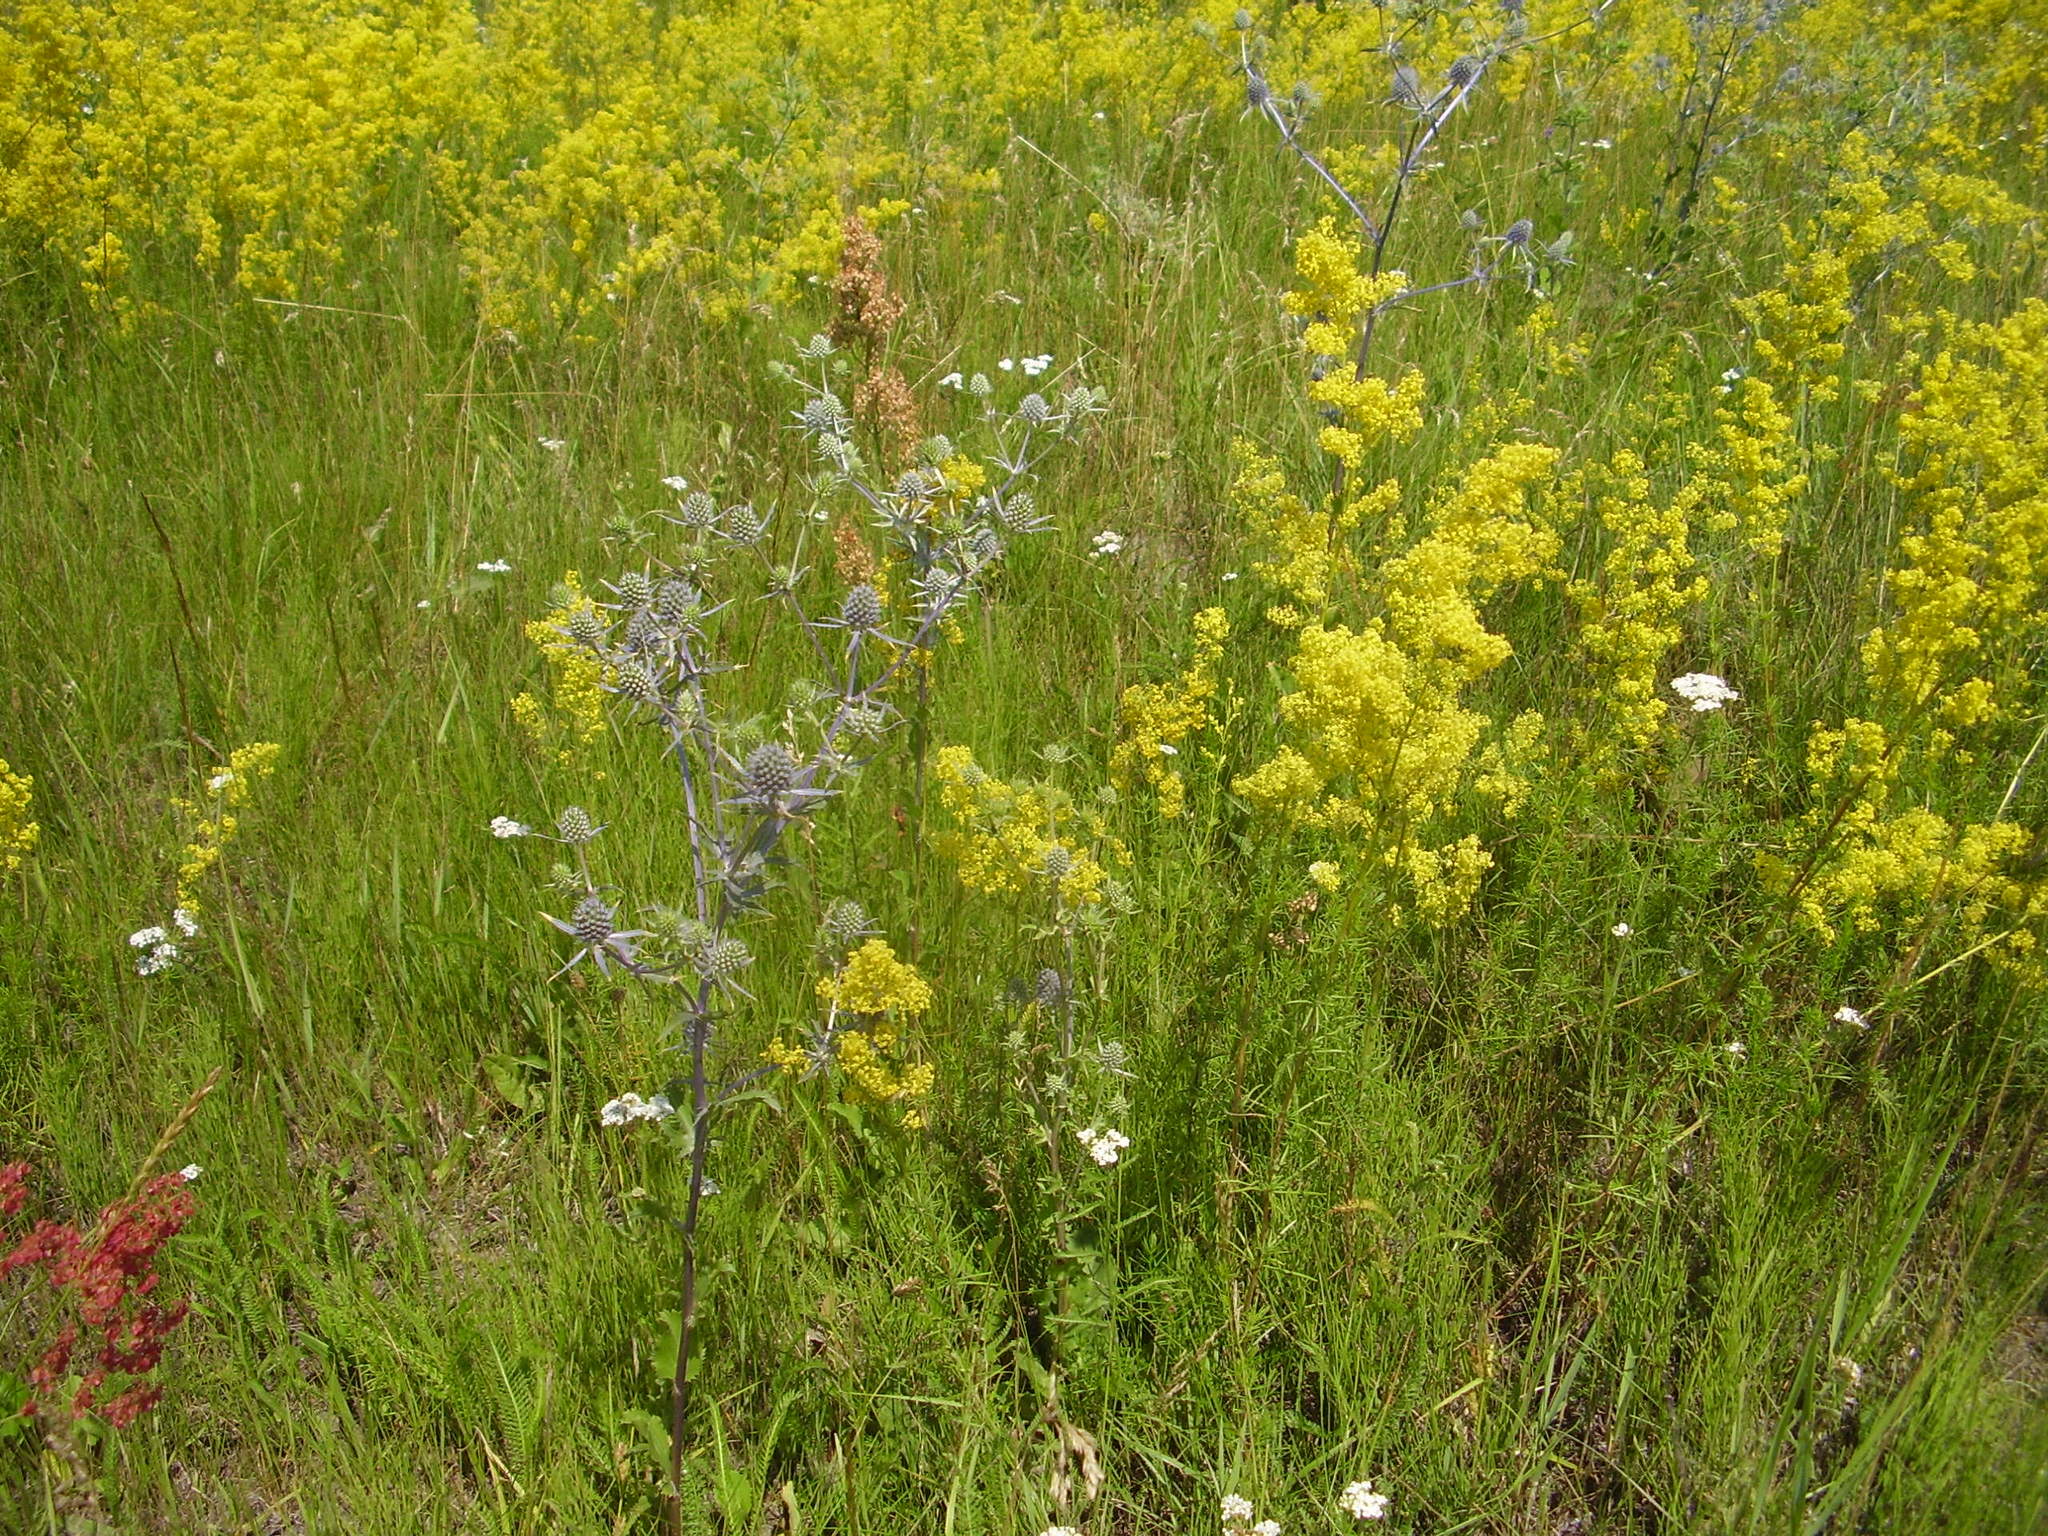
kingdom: Plantae
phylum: Tracheophyta
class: Magnoliopsida
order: Gentianales
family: Rubiaceae
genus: Galium
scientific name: Galium verum
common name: Lady's bedstraw
